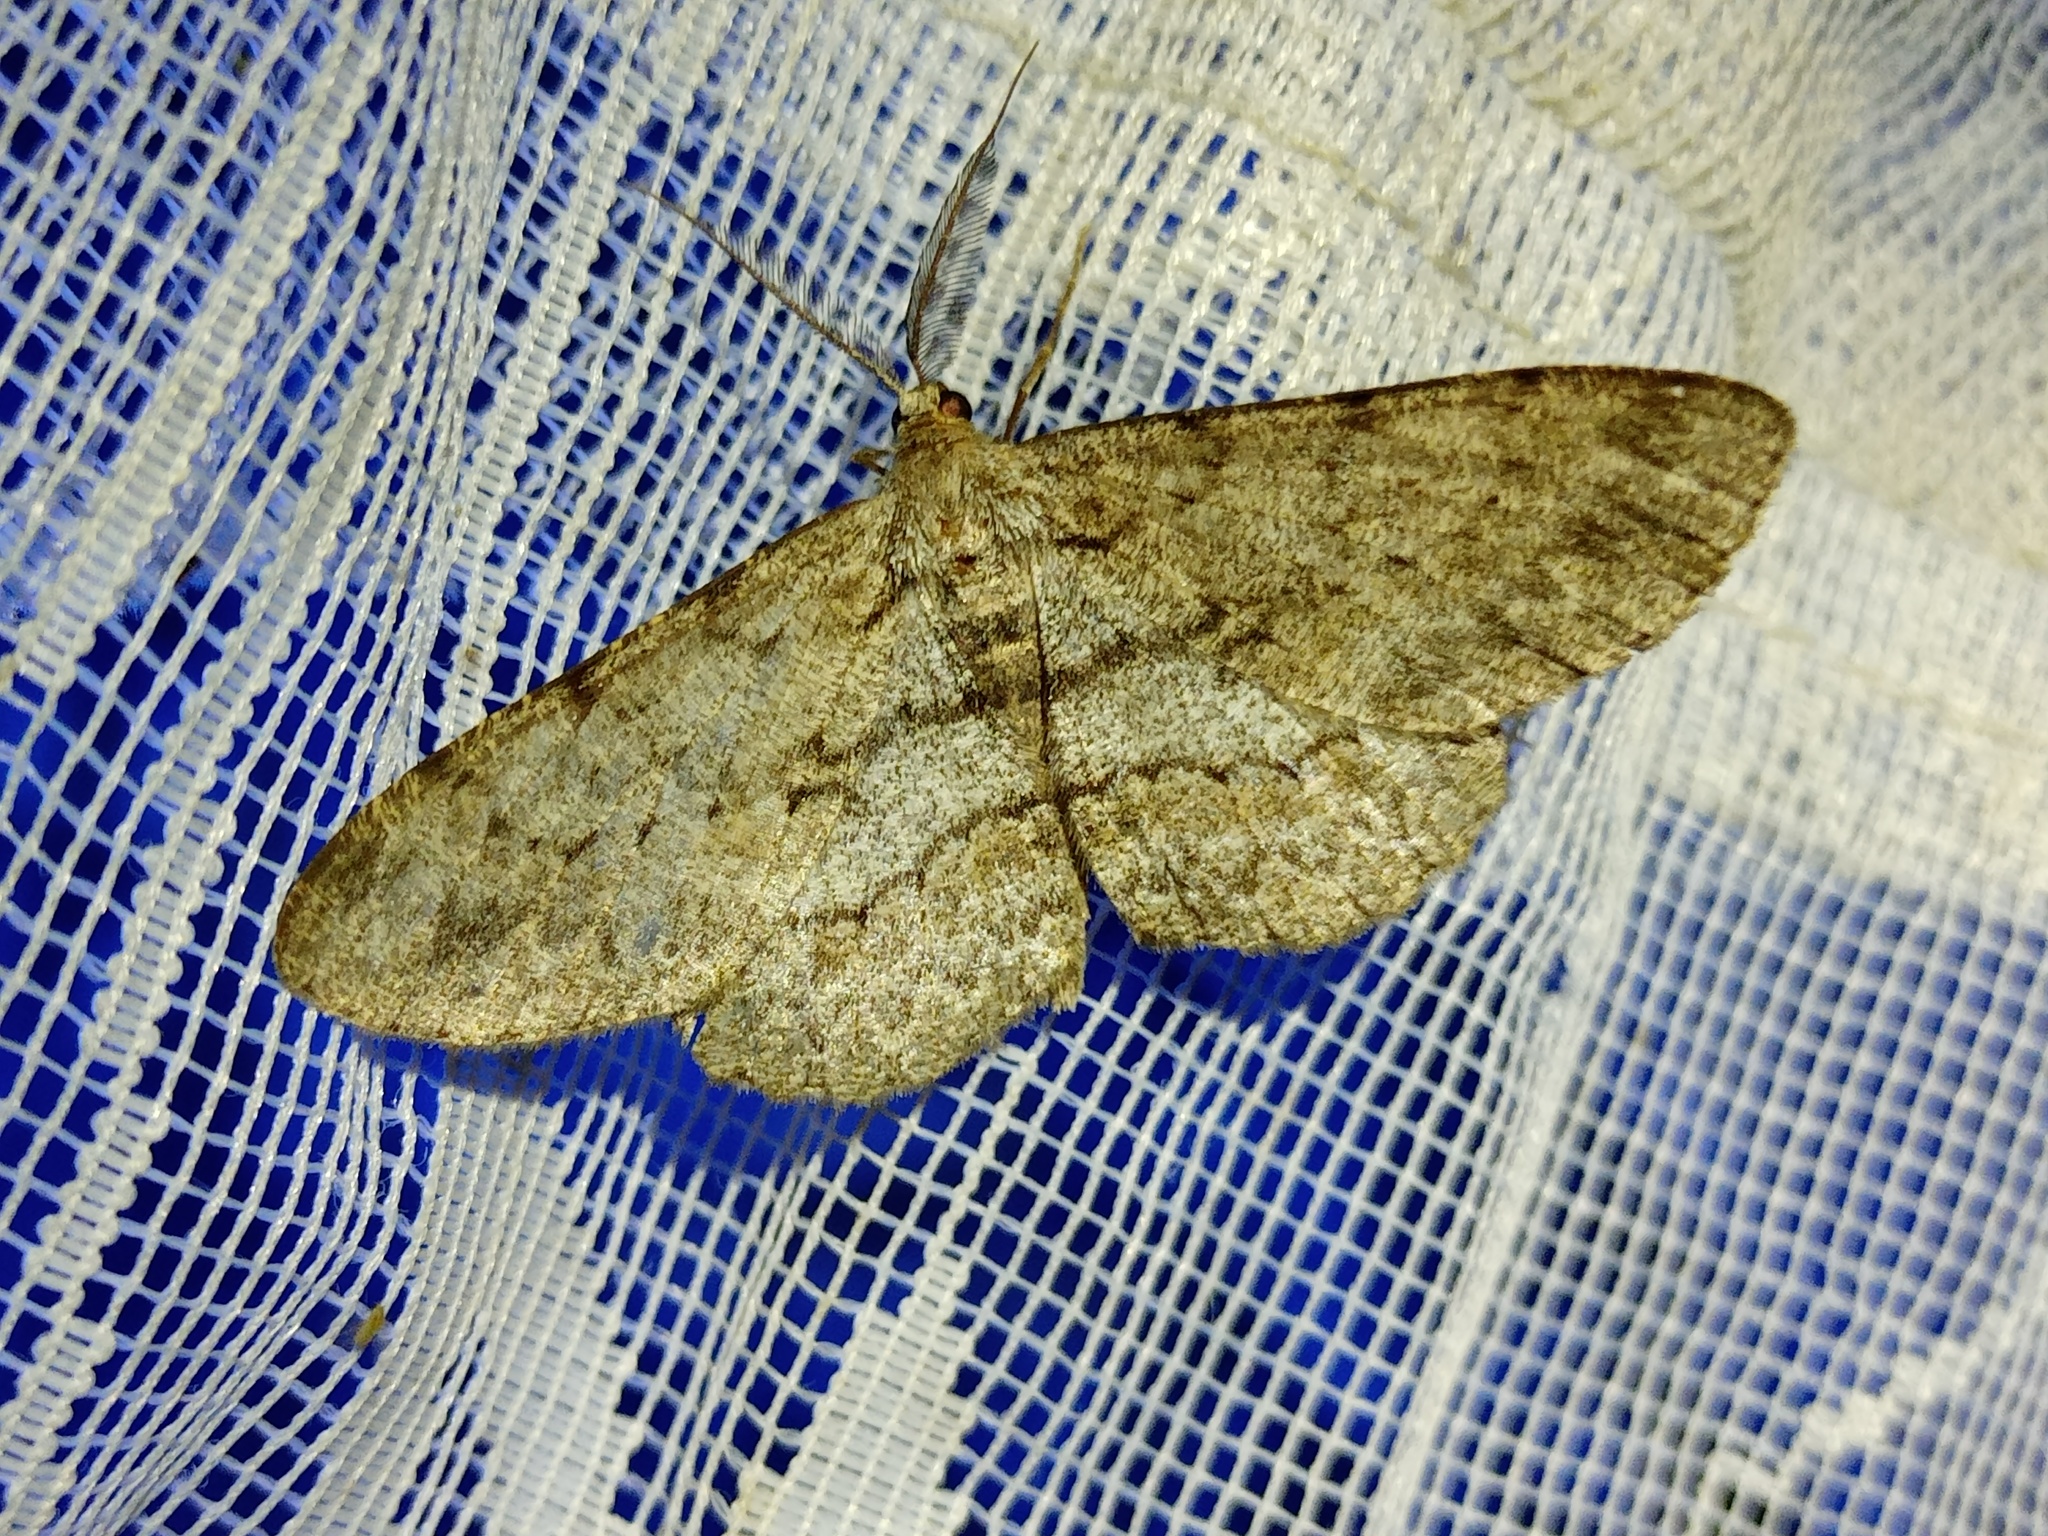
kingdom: Animalia
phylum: Arthropoda
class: Insecta
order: Lepidoptera
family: Geometridae
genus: Hypomecis
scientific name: Hypomecis punctinalis
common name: Pale oak beauty
